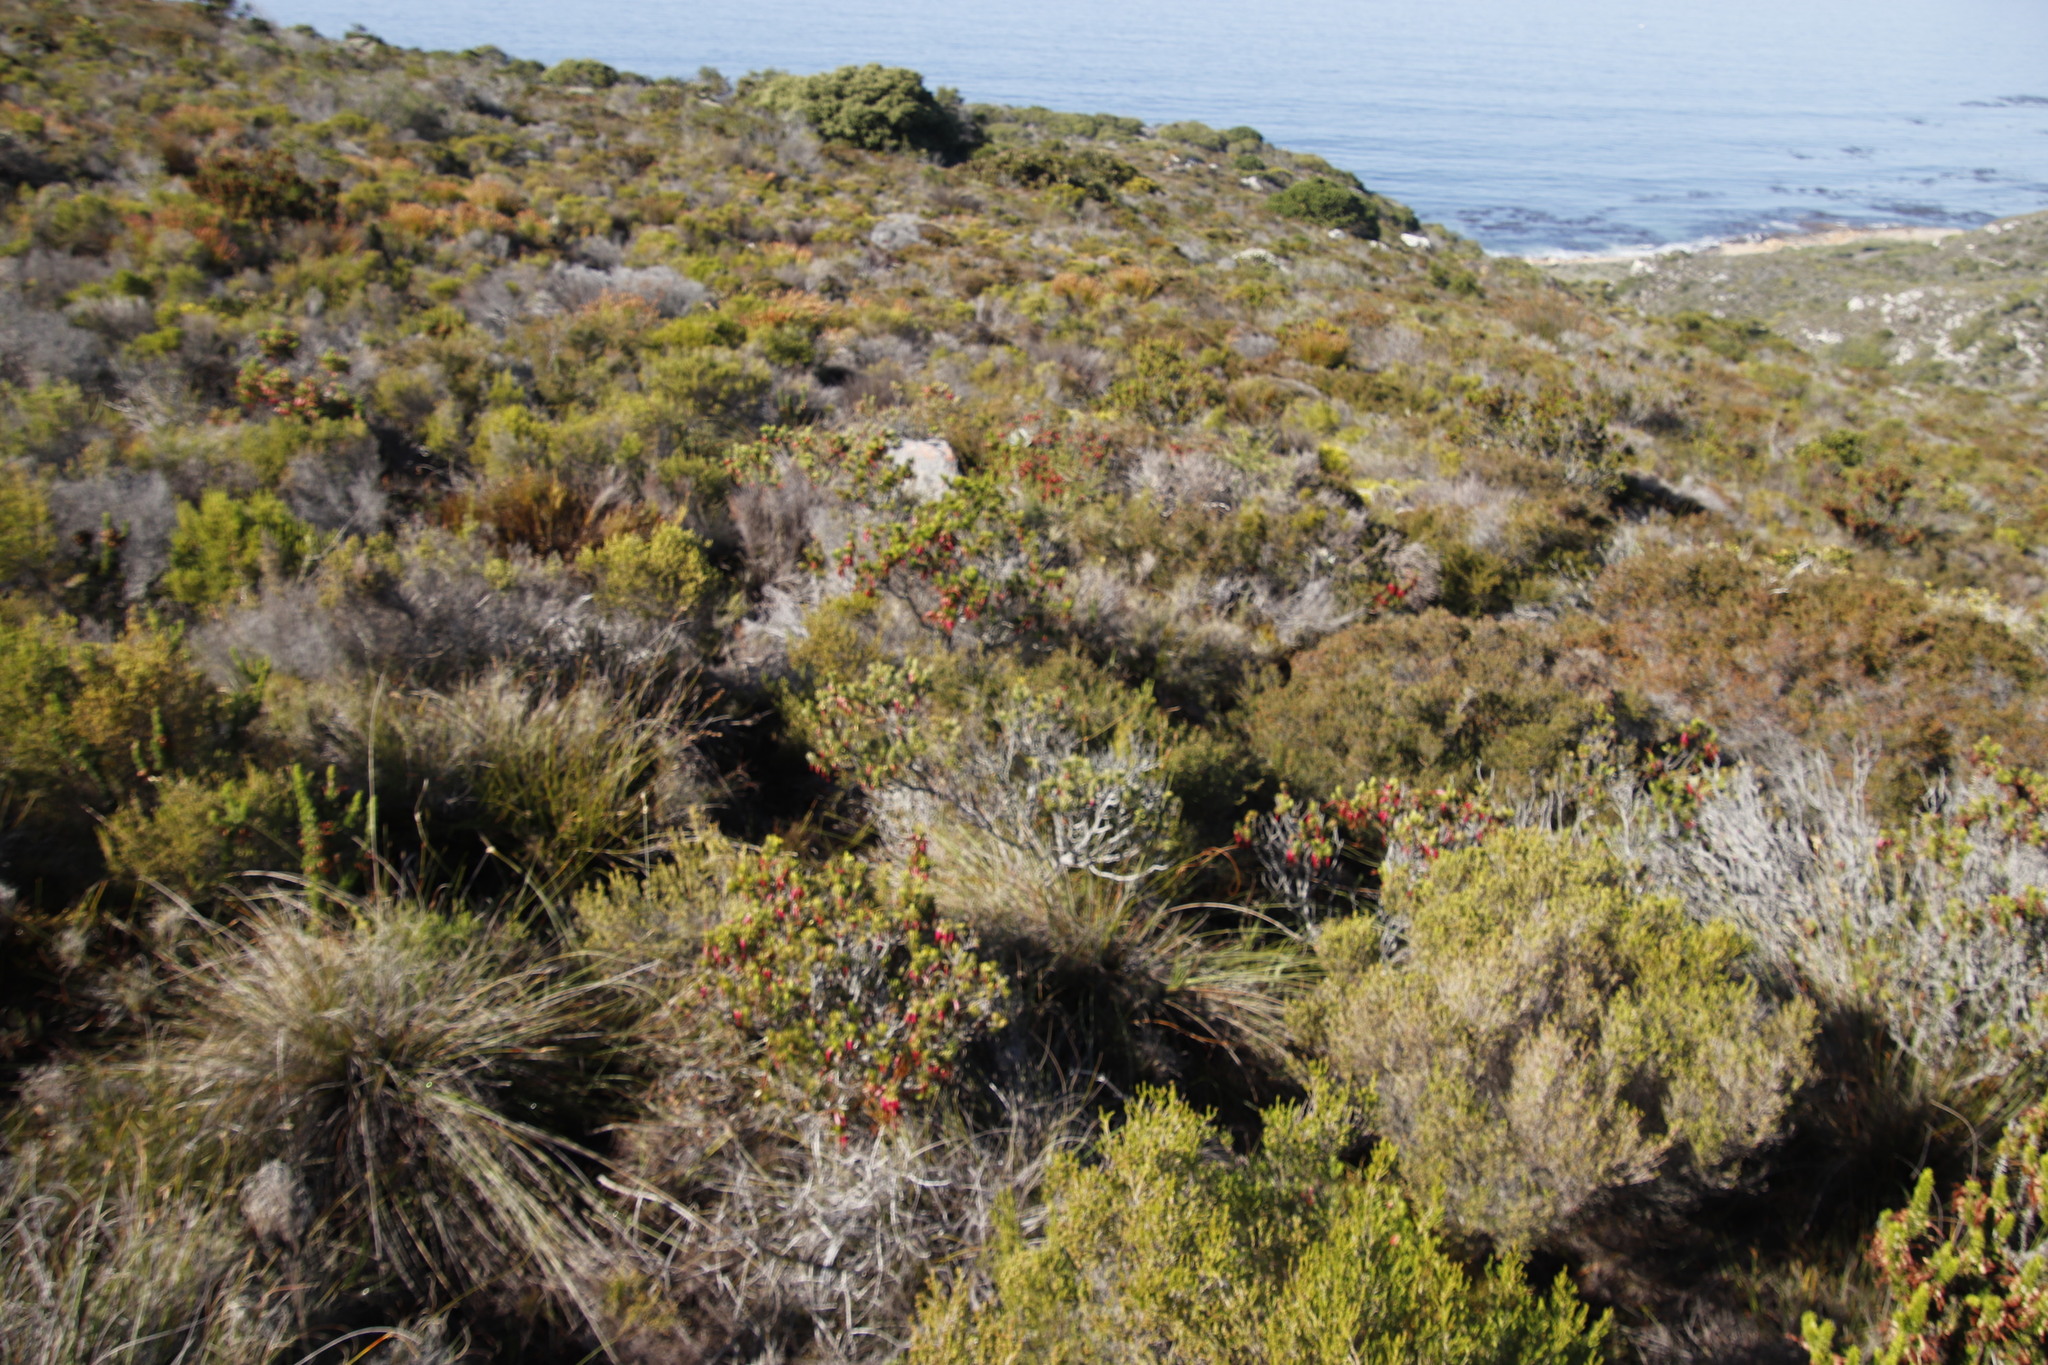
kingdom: Plantae
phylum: Tracheophyta
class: Magnoliopsida
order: Ericales
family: Ericaceae
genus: Erica
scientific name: Erica plukenetii
